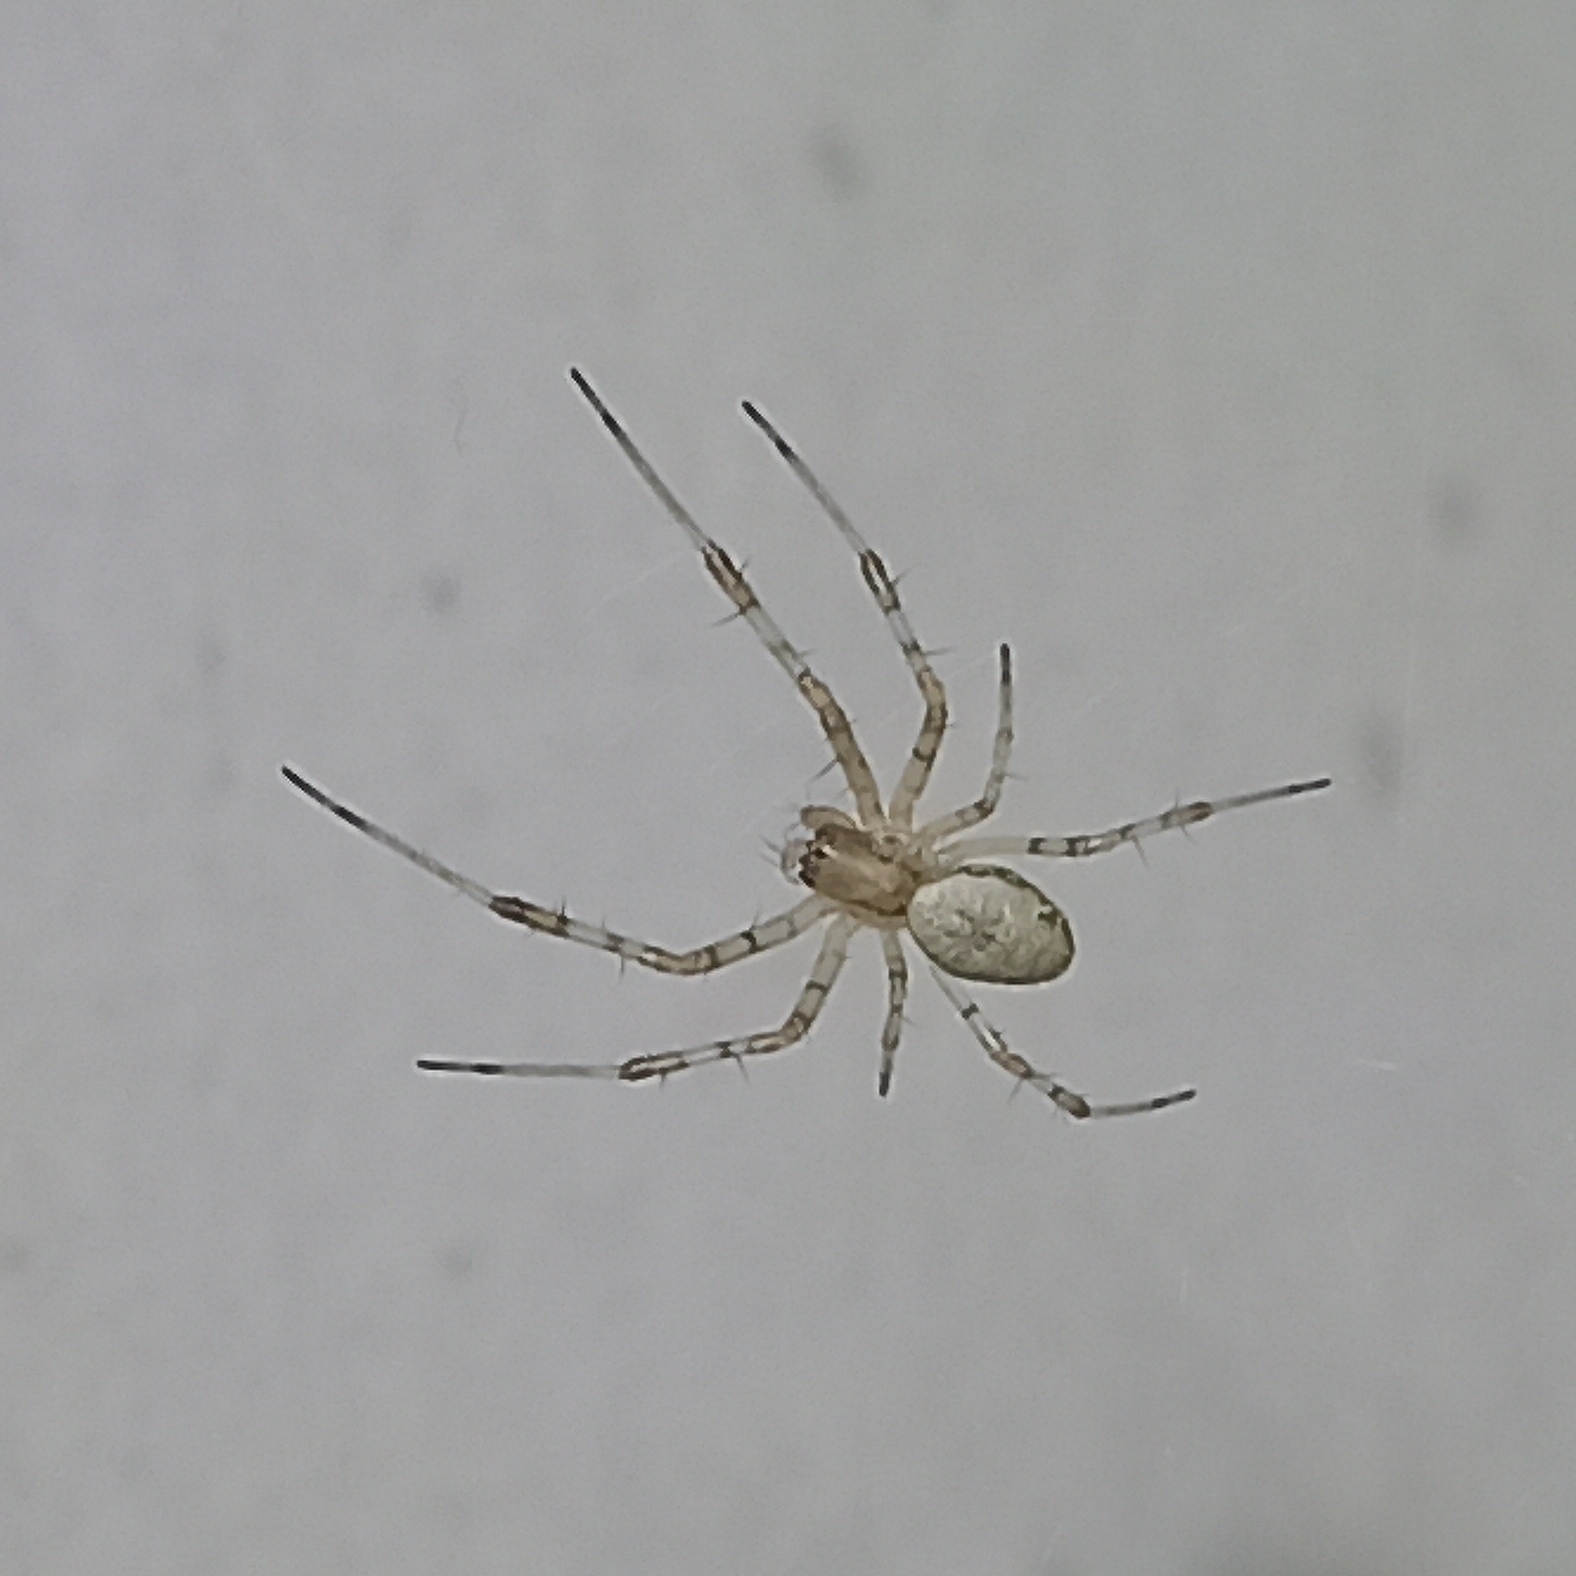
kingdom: Animalia
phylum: Arthropoda
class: Arachnida
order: Araneae
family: Araneidae
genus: Nephilingis
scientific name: Nephilingis cruentata
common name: African hermit spider
